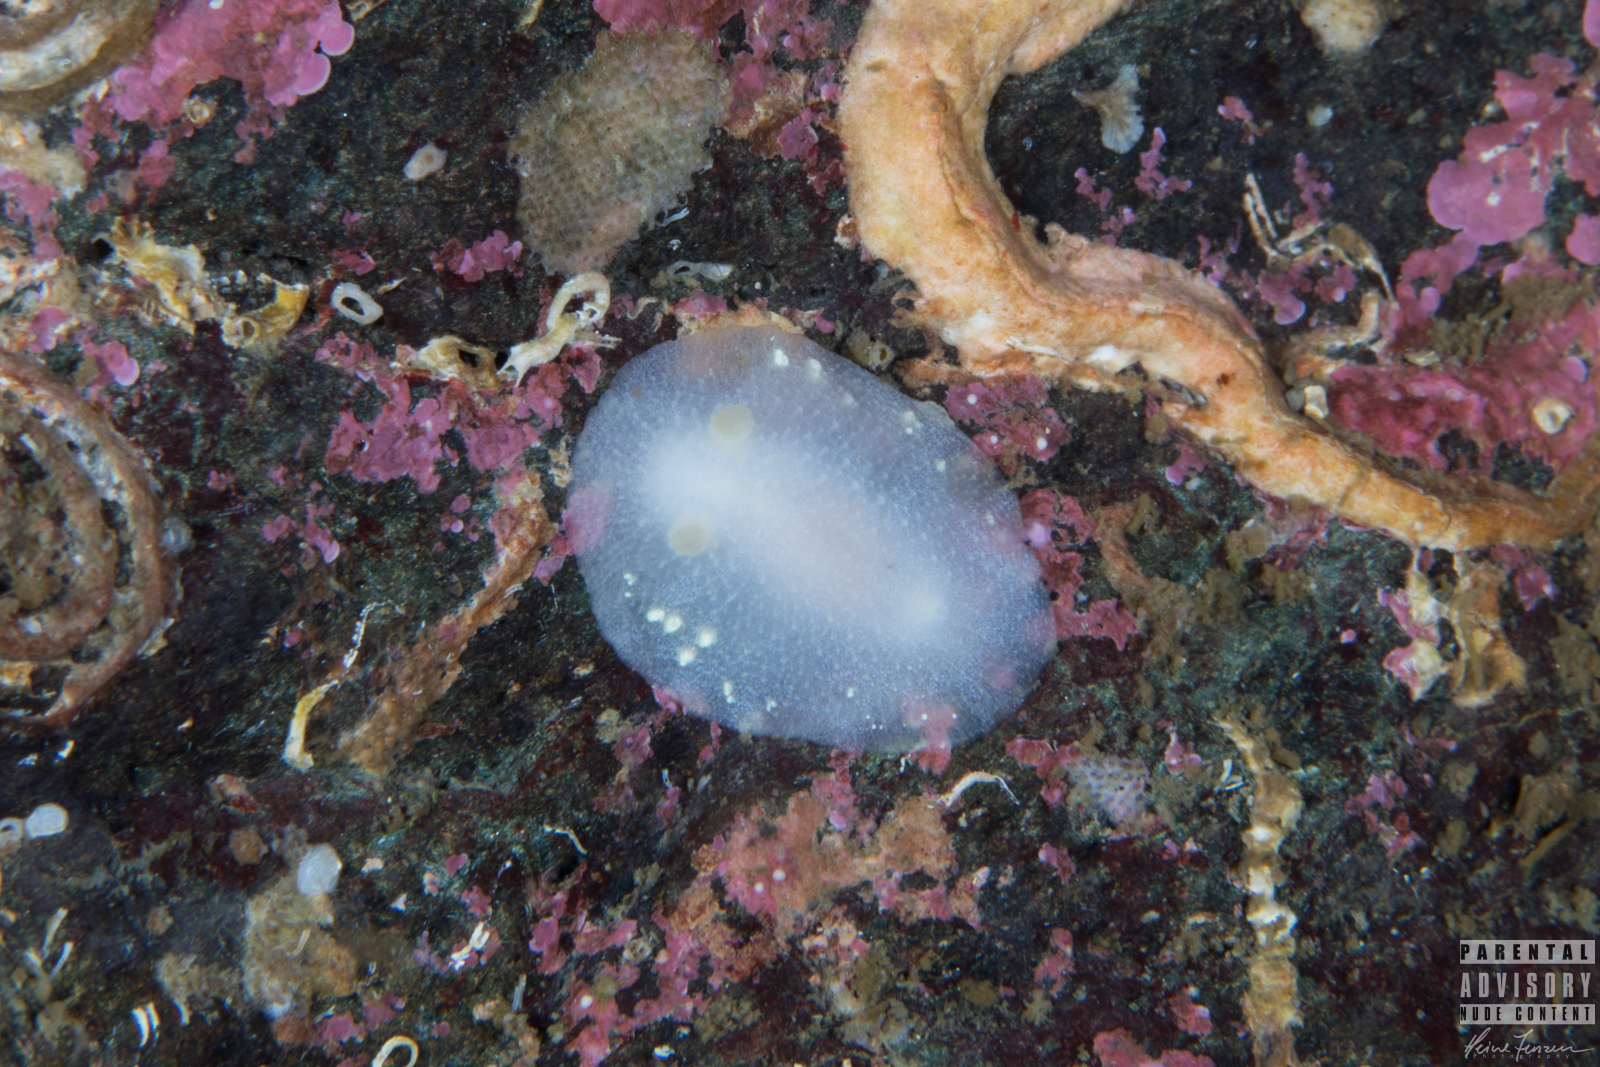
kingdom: Animalia
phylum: Mollusca
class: Gastropoda
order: Nudibranchia
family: Cadlinidae
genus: Cadlina
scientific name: Cadlina laevis
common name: White atlantic cadlina
